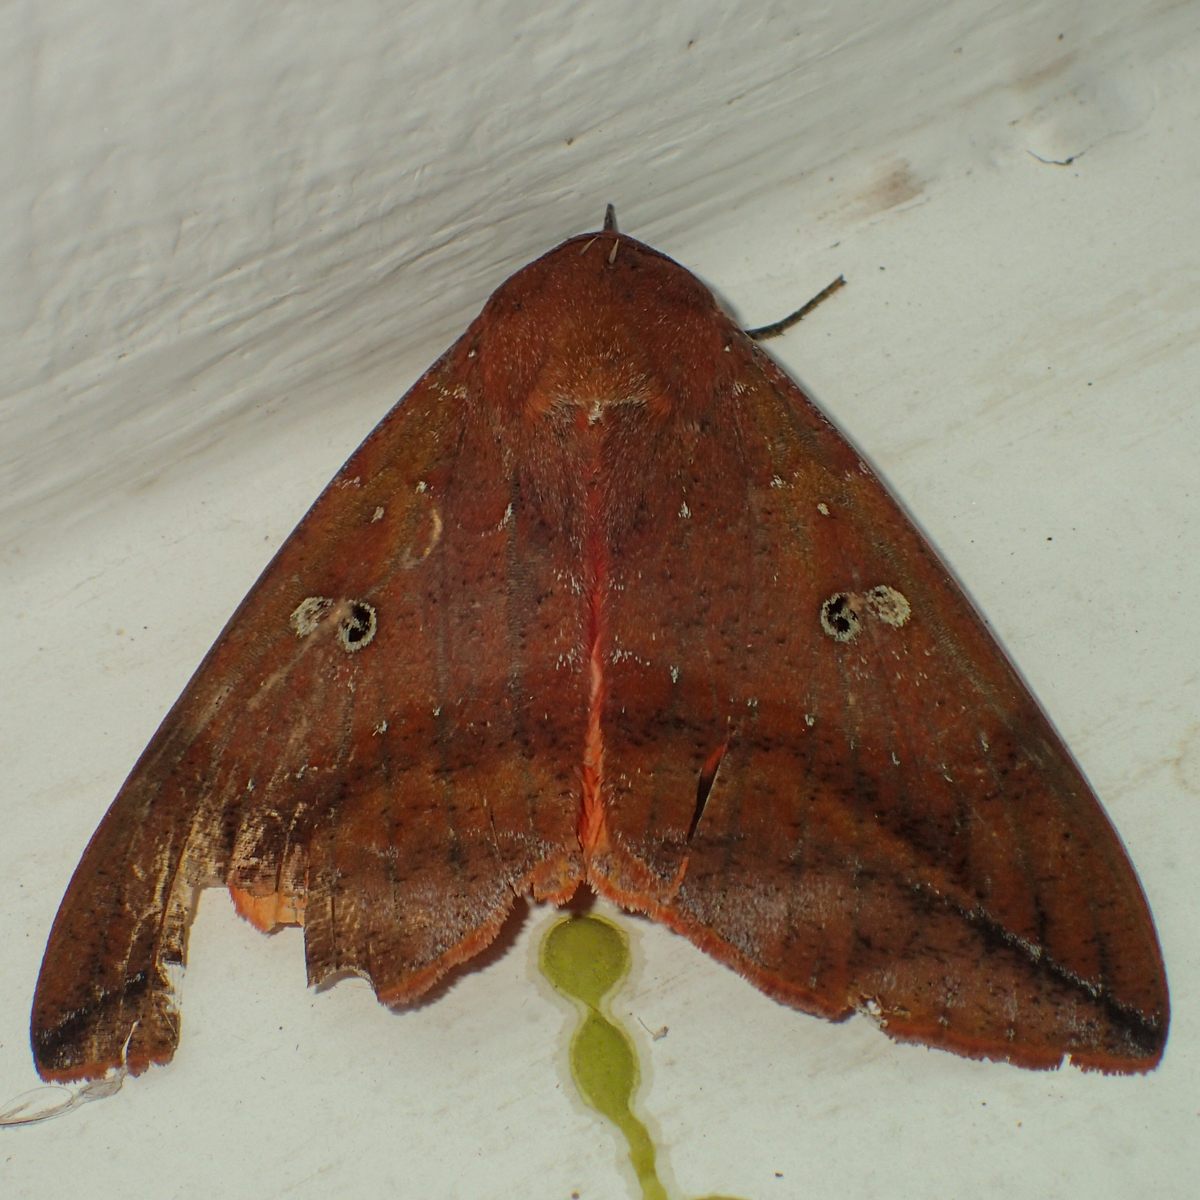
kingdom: Animalia
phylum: Arthropoda
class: Insecta
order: Lepidoptera
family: Erebidae
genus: Thyas
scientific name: Thyas honesta
